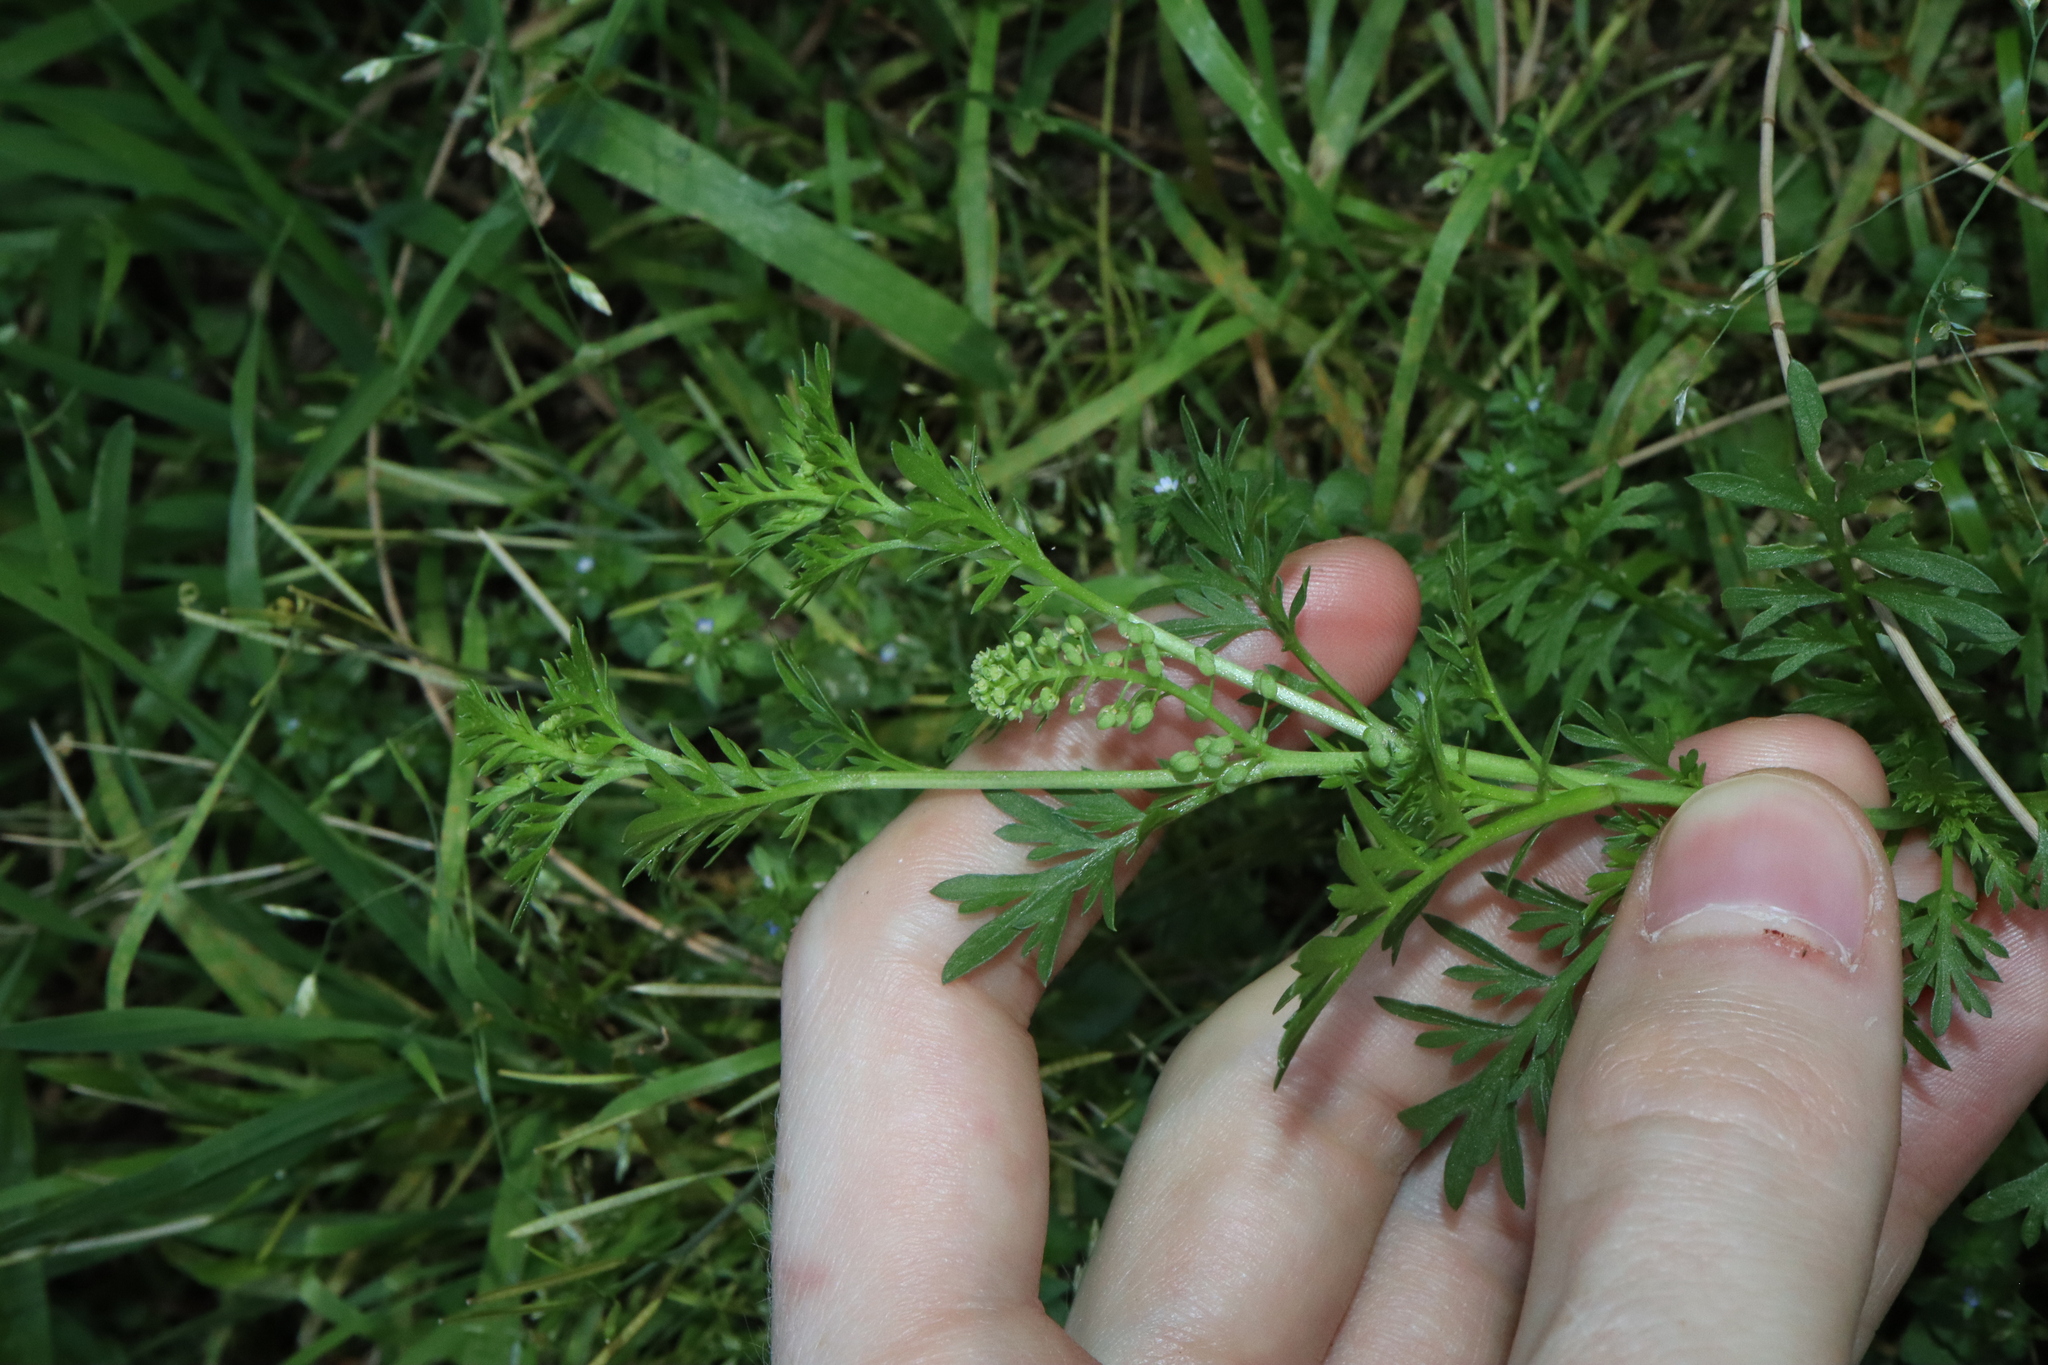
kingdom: Plantae
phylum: Tracheophyta
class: Magnoliopsida
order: Brassicales
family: Brassicaceae
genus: Lepidium
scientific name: Lepidium didymum
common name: Lesser swinecress
